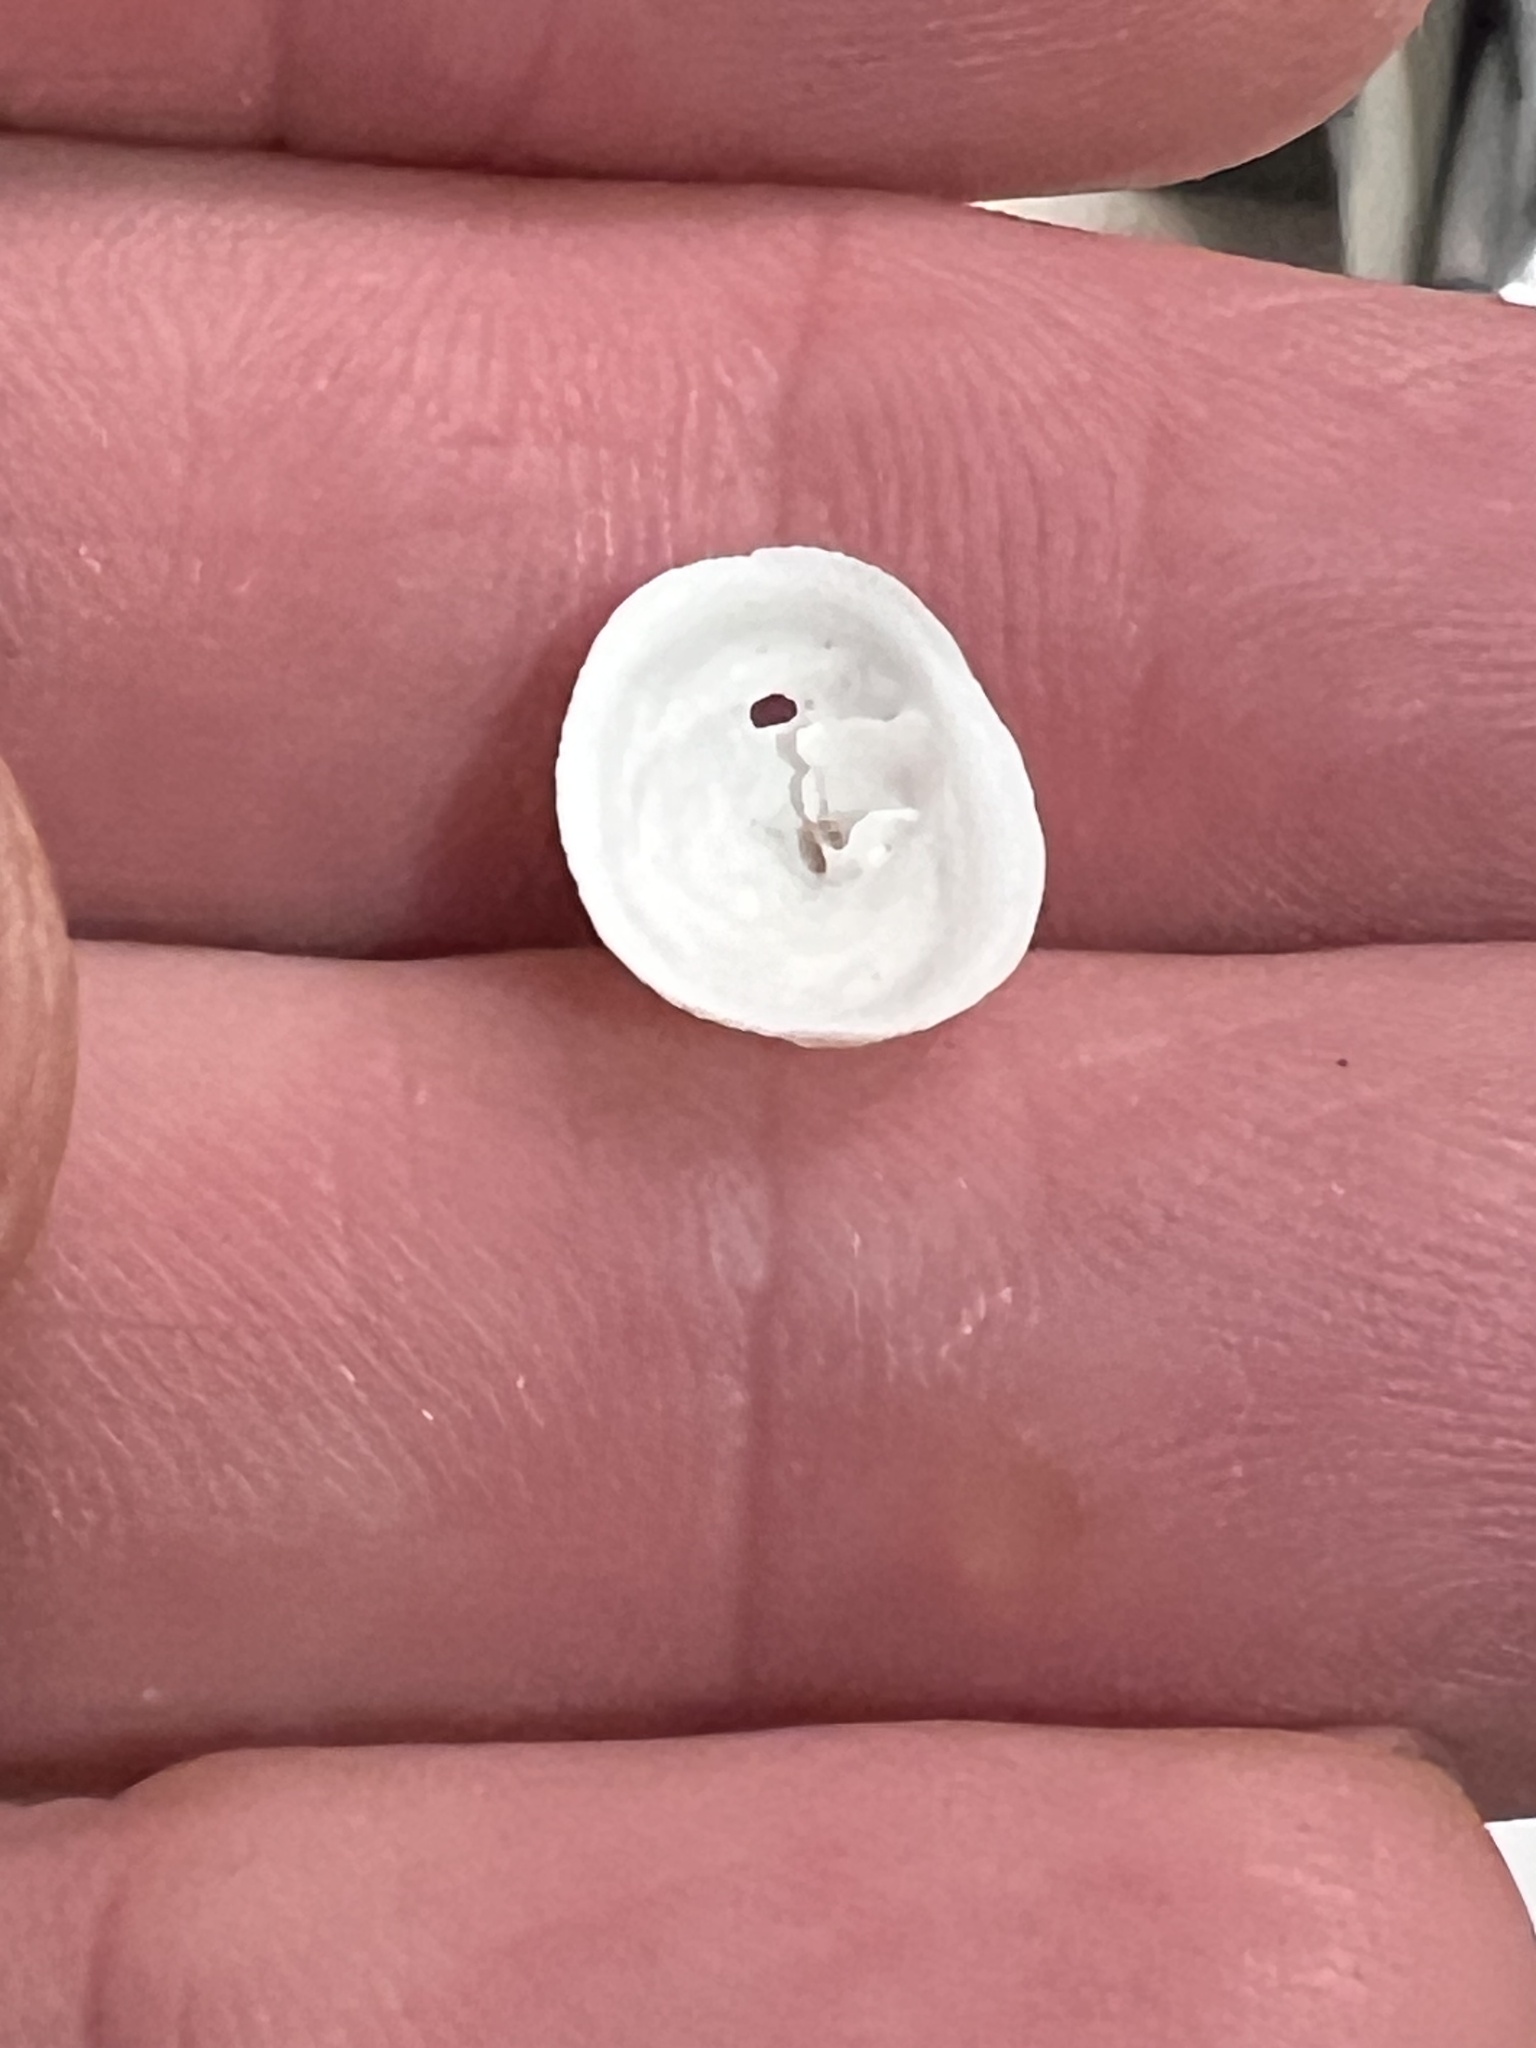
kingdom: Animalia
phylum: Mollusca
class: Gastropoda
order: Littorinimorpha
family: Calyptraeidae
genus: Crucibulum
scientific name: Crucibulum spinosum
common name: Spiny cup-and-saucer
